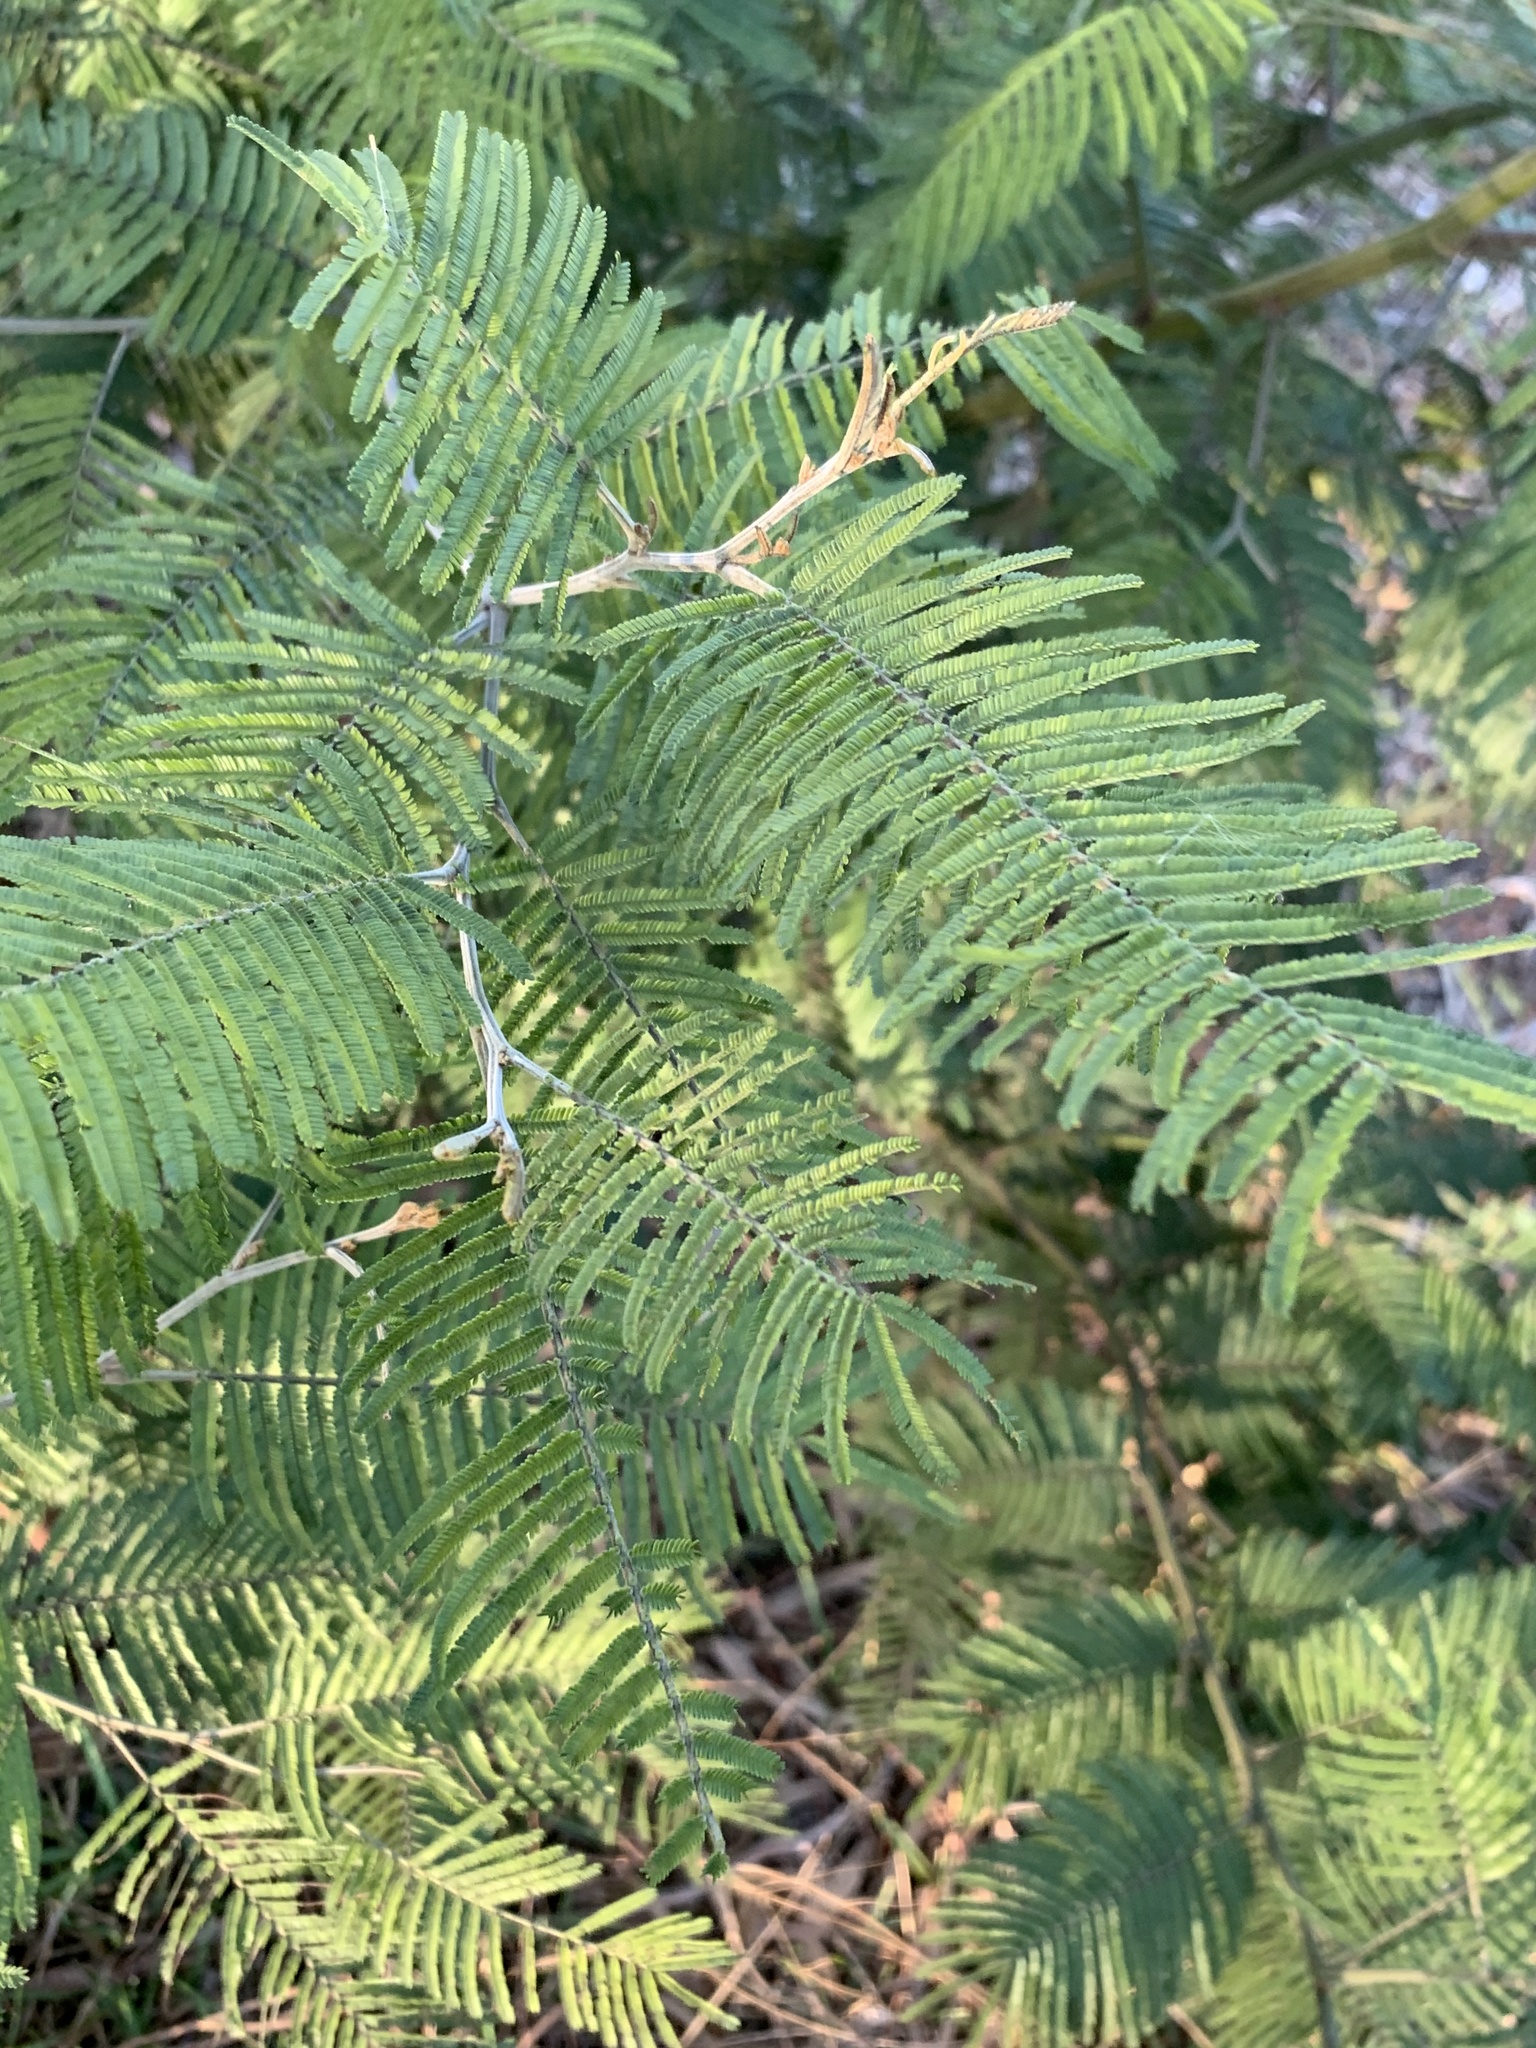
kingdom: Plantae
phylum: Tracheophyta
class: Magnoliopsida
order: Fabales
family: Fabaceae
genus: Acacia
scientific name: Acacia mearnsii
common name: Black wattle
